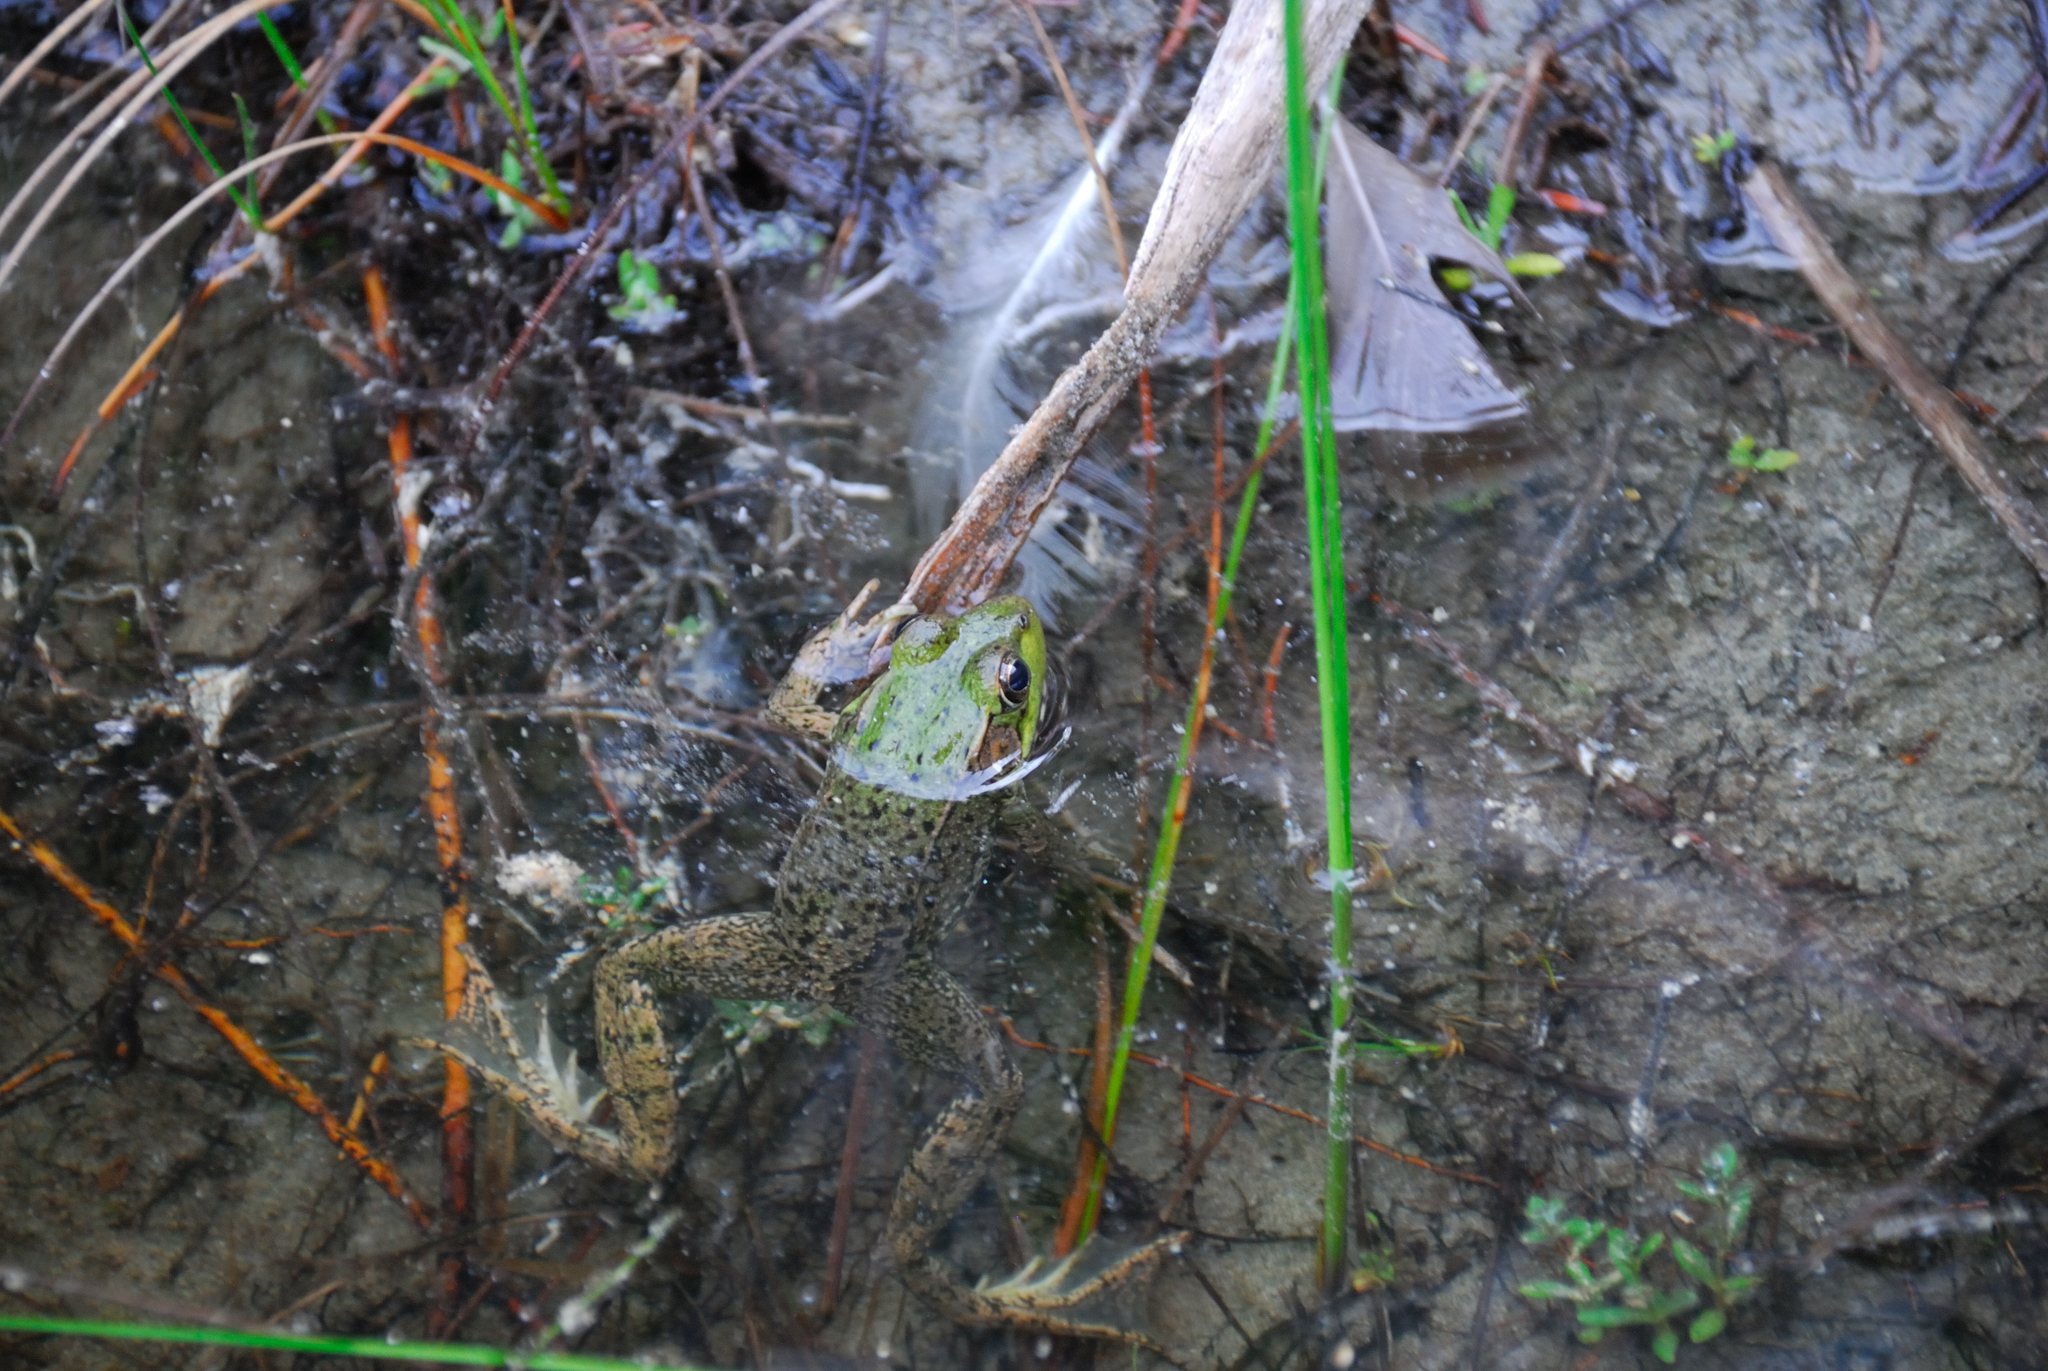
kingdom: Animalia
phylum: Chordata
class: Amphibia
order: Anura
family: Ranidae
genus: Lithobates
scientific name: Lithobates clamitans
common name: Green frog
